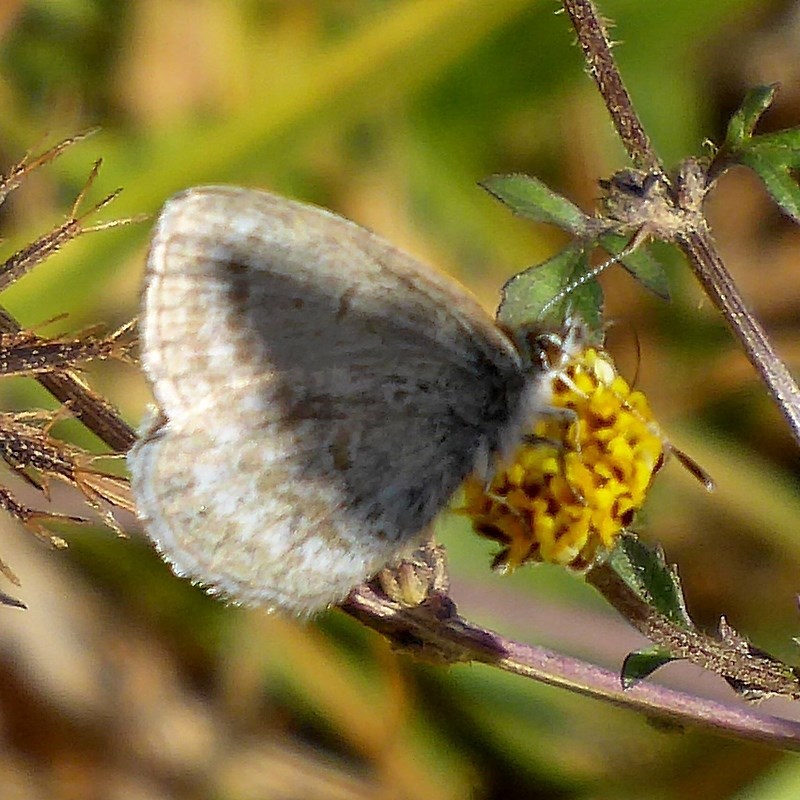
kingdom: Animalia
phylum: Arthropoda
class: Insecta
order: Lepidoptera
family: Lycaenidae
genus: Zizina
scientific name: Zizina labradus
